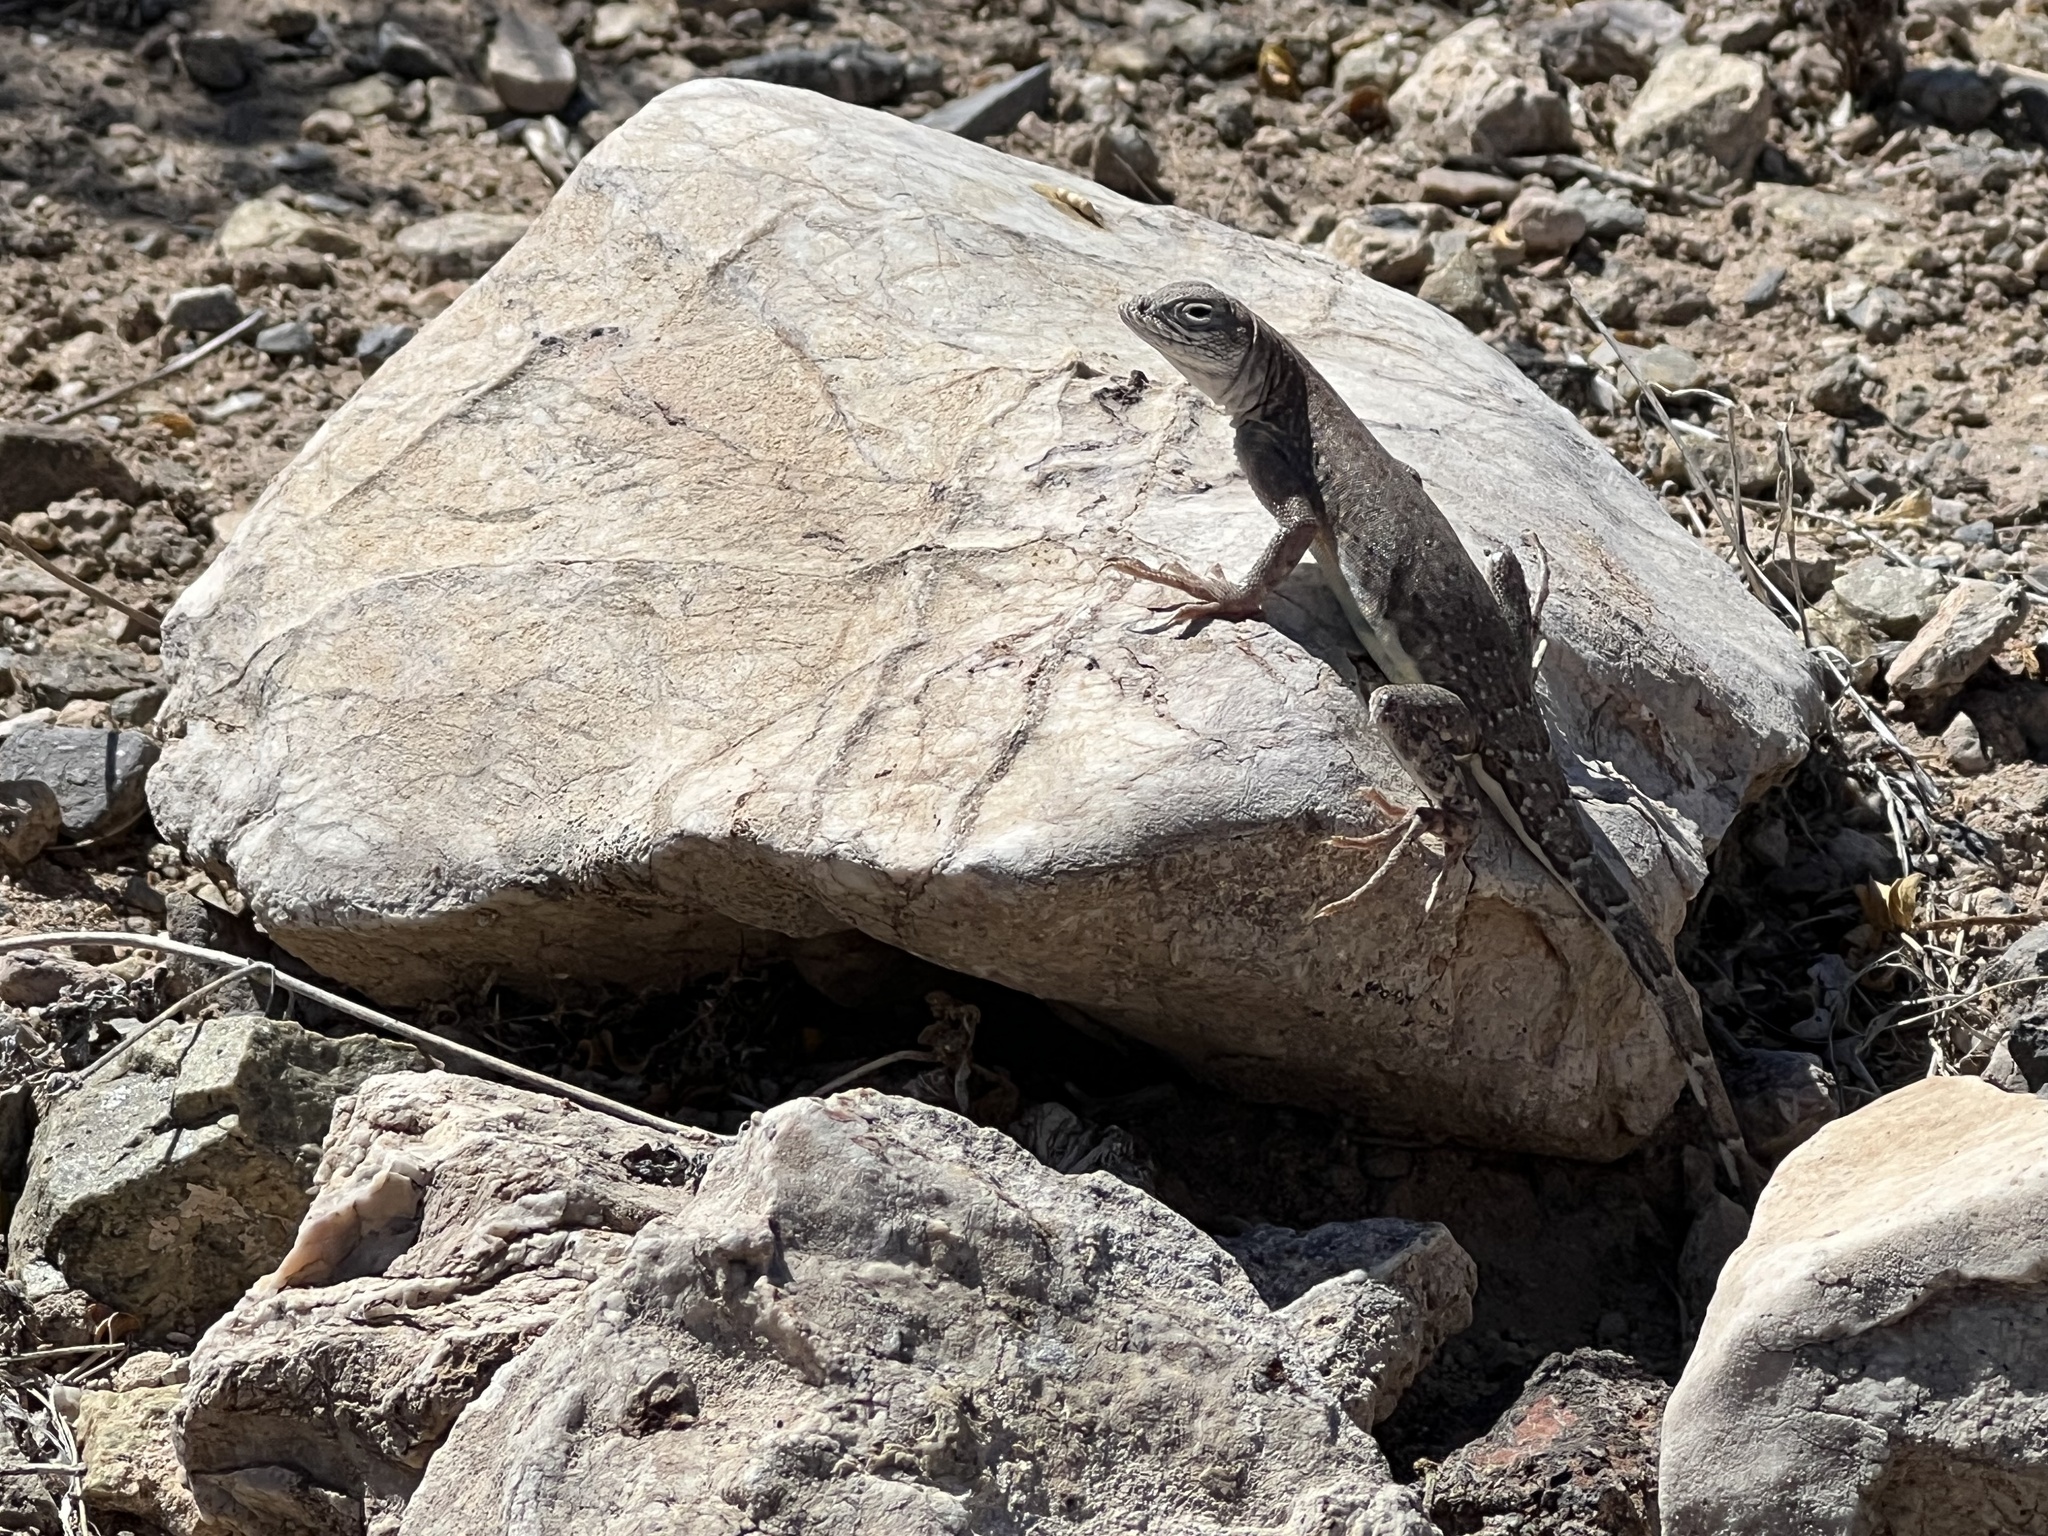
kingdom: Animalia
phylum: Chordata
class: Squamata
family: Phrynosomatidae
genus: Cophosaurus
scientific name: Cophosaurus texanus
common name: Greater earless lizard
